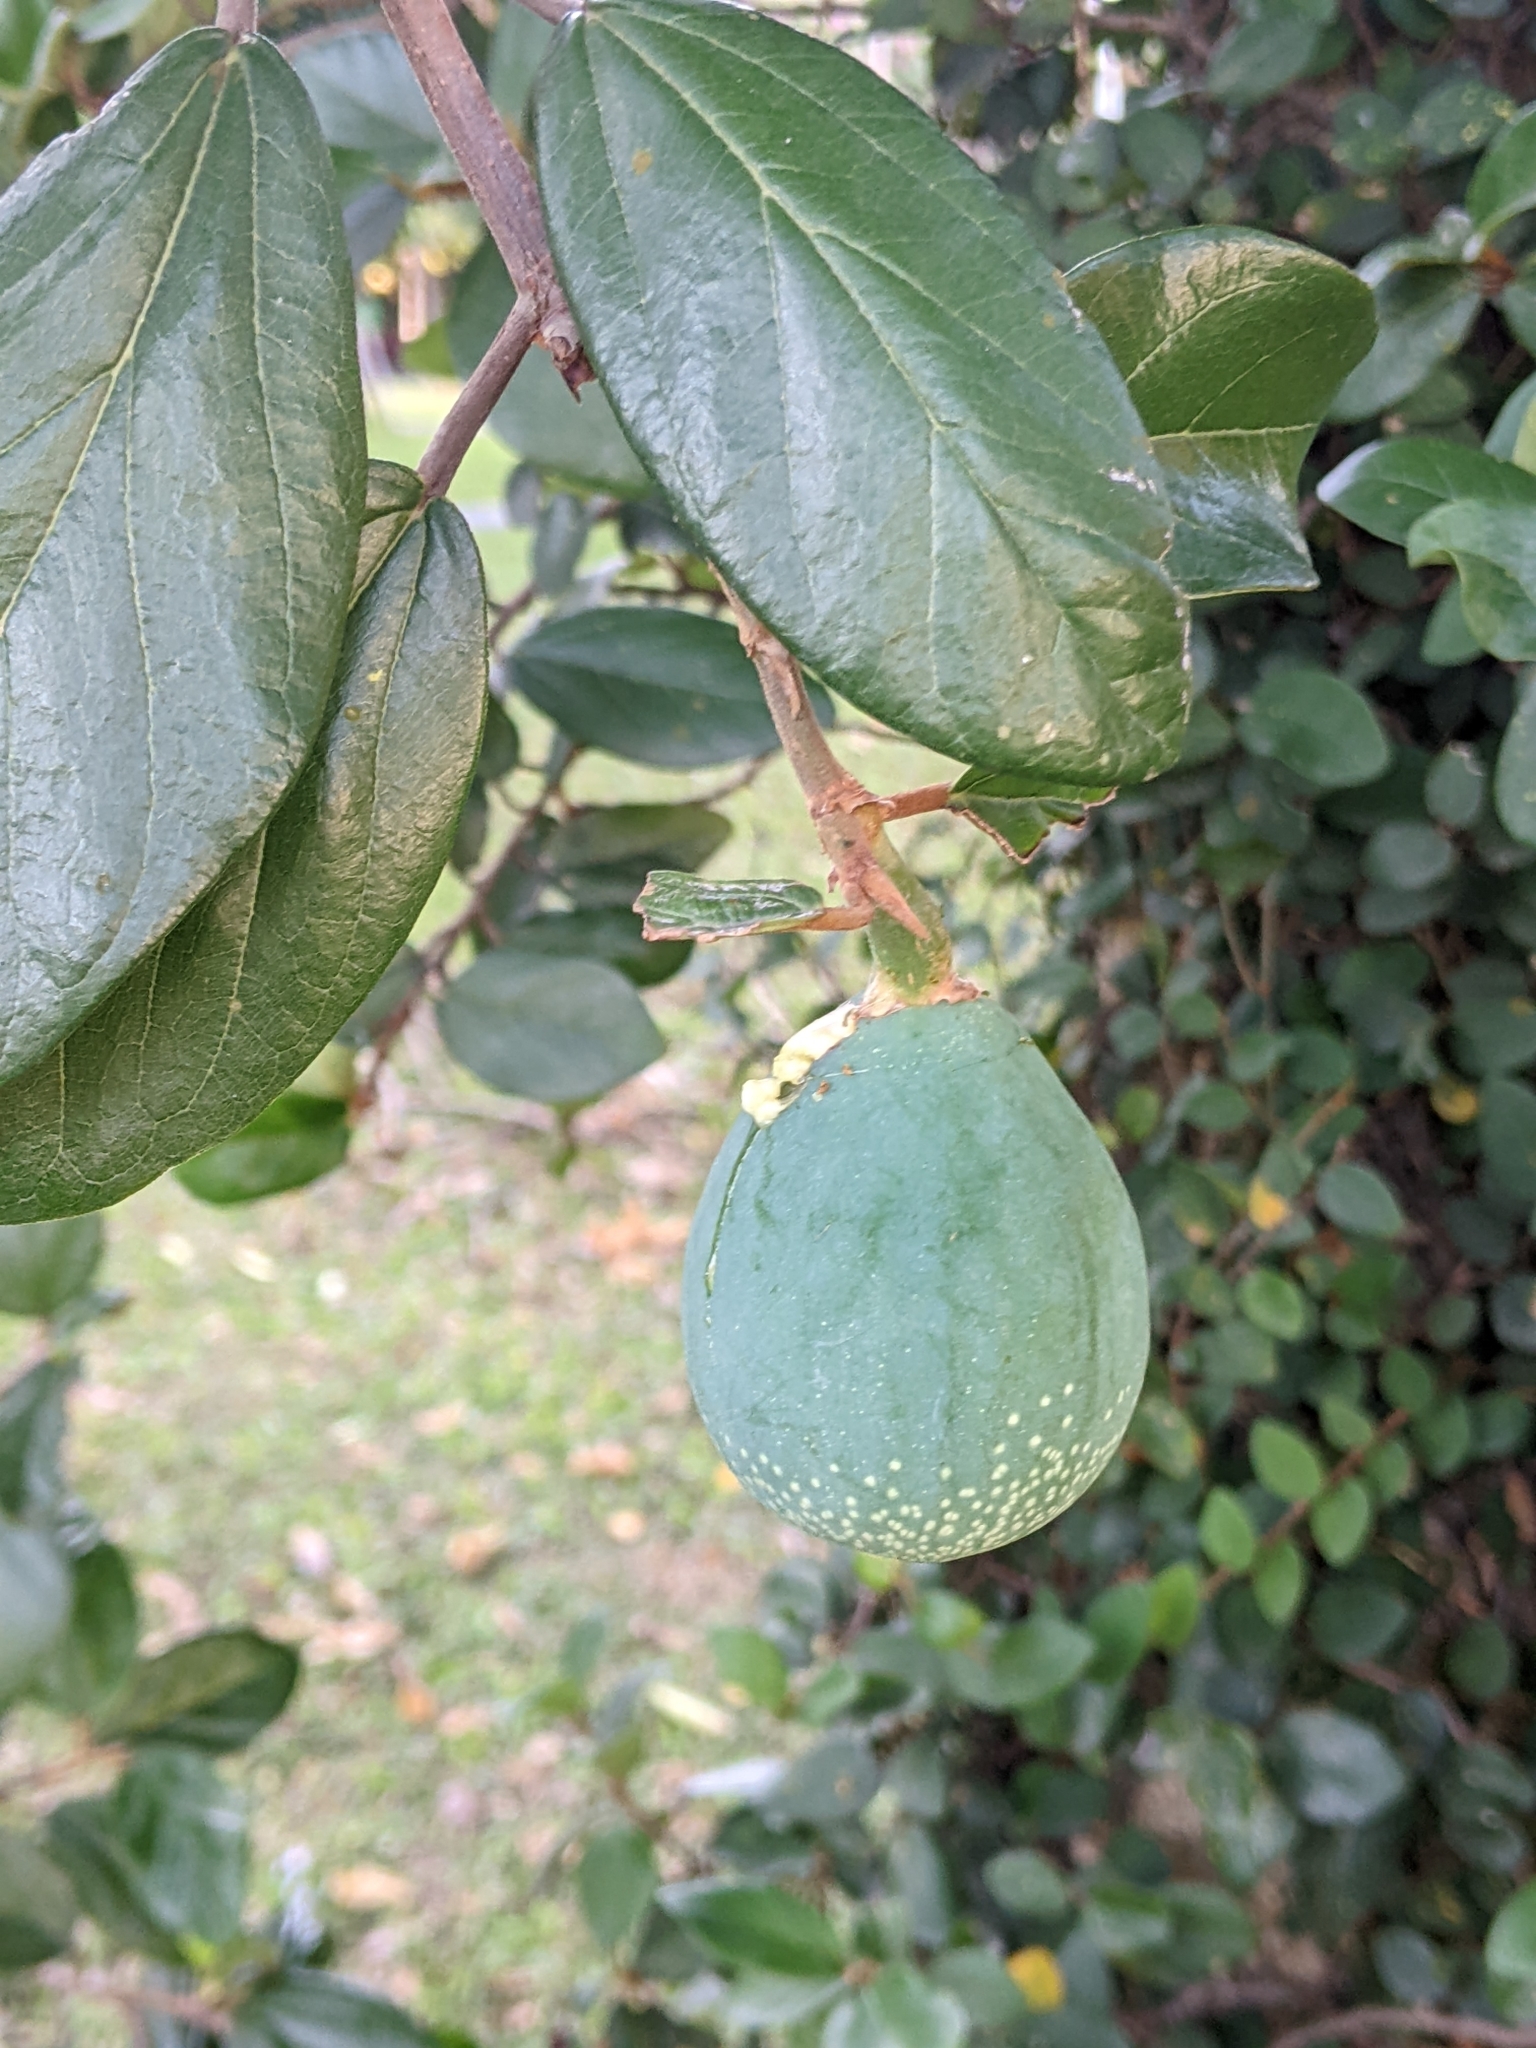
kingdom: Plantae
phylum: Tracheophyta
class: Magnoliopsida
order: Rosales
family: Moraceae
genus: Ficus
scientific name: Ficus pumila
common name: Climbingfig
